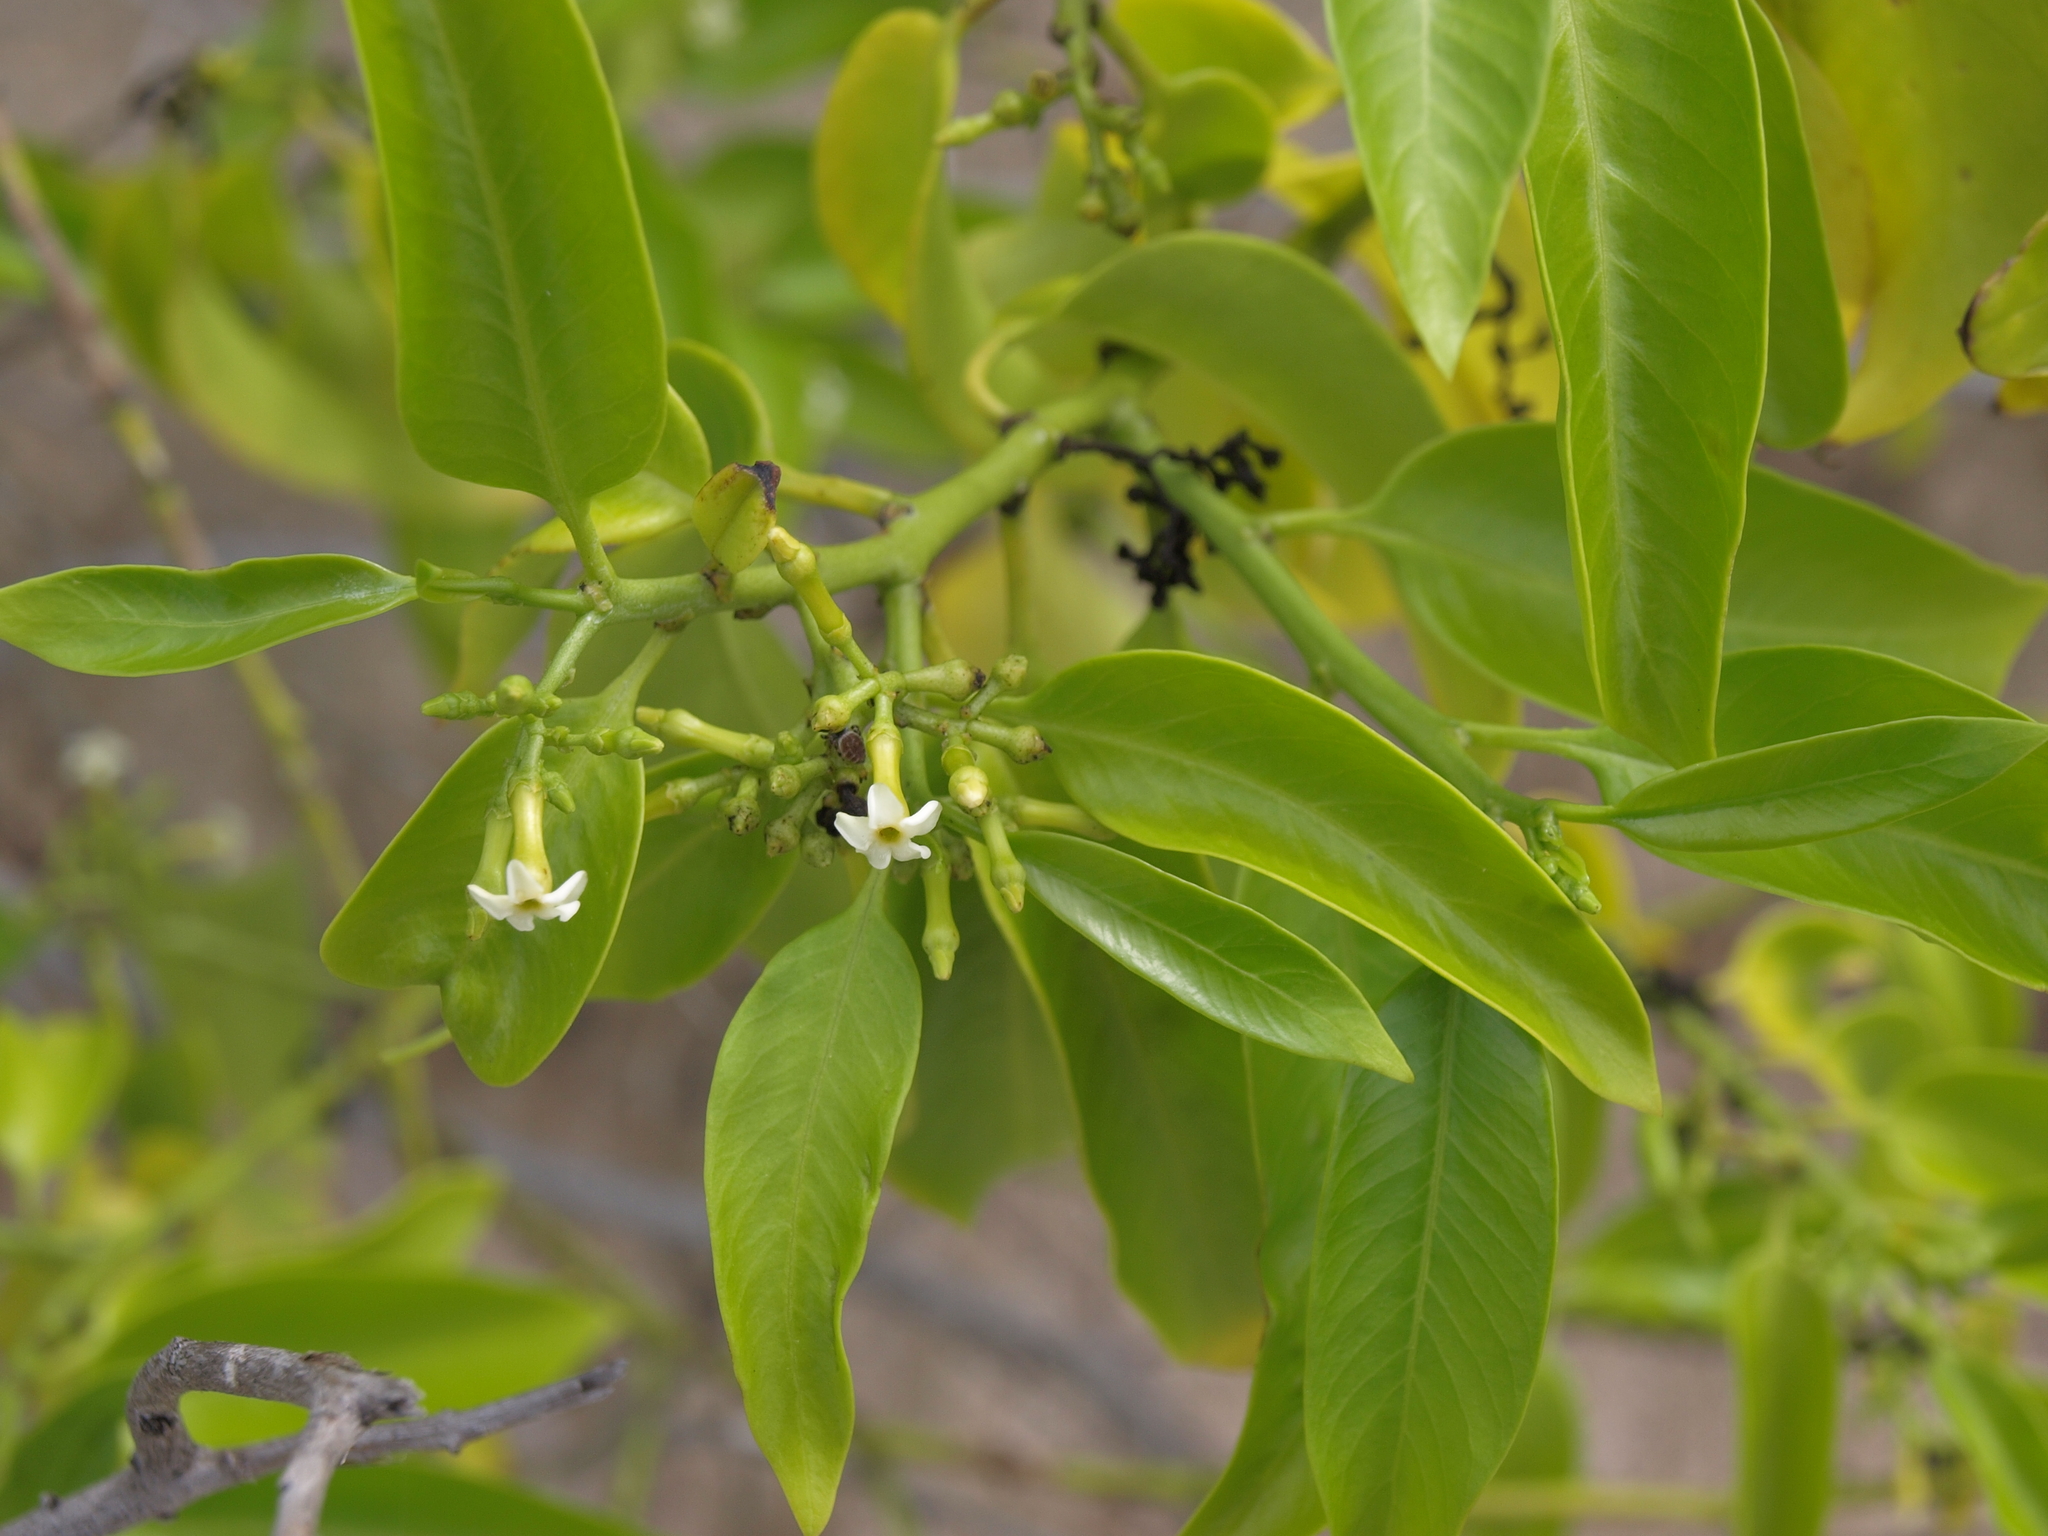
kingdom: Plantae
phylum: Tracheophyta
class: Magnoliopsida
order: Gentianales
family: Apocynaceae
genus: Vallesia
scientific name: Vallesia glabra
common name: Pearlberry
